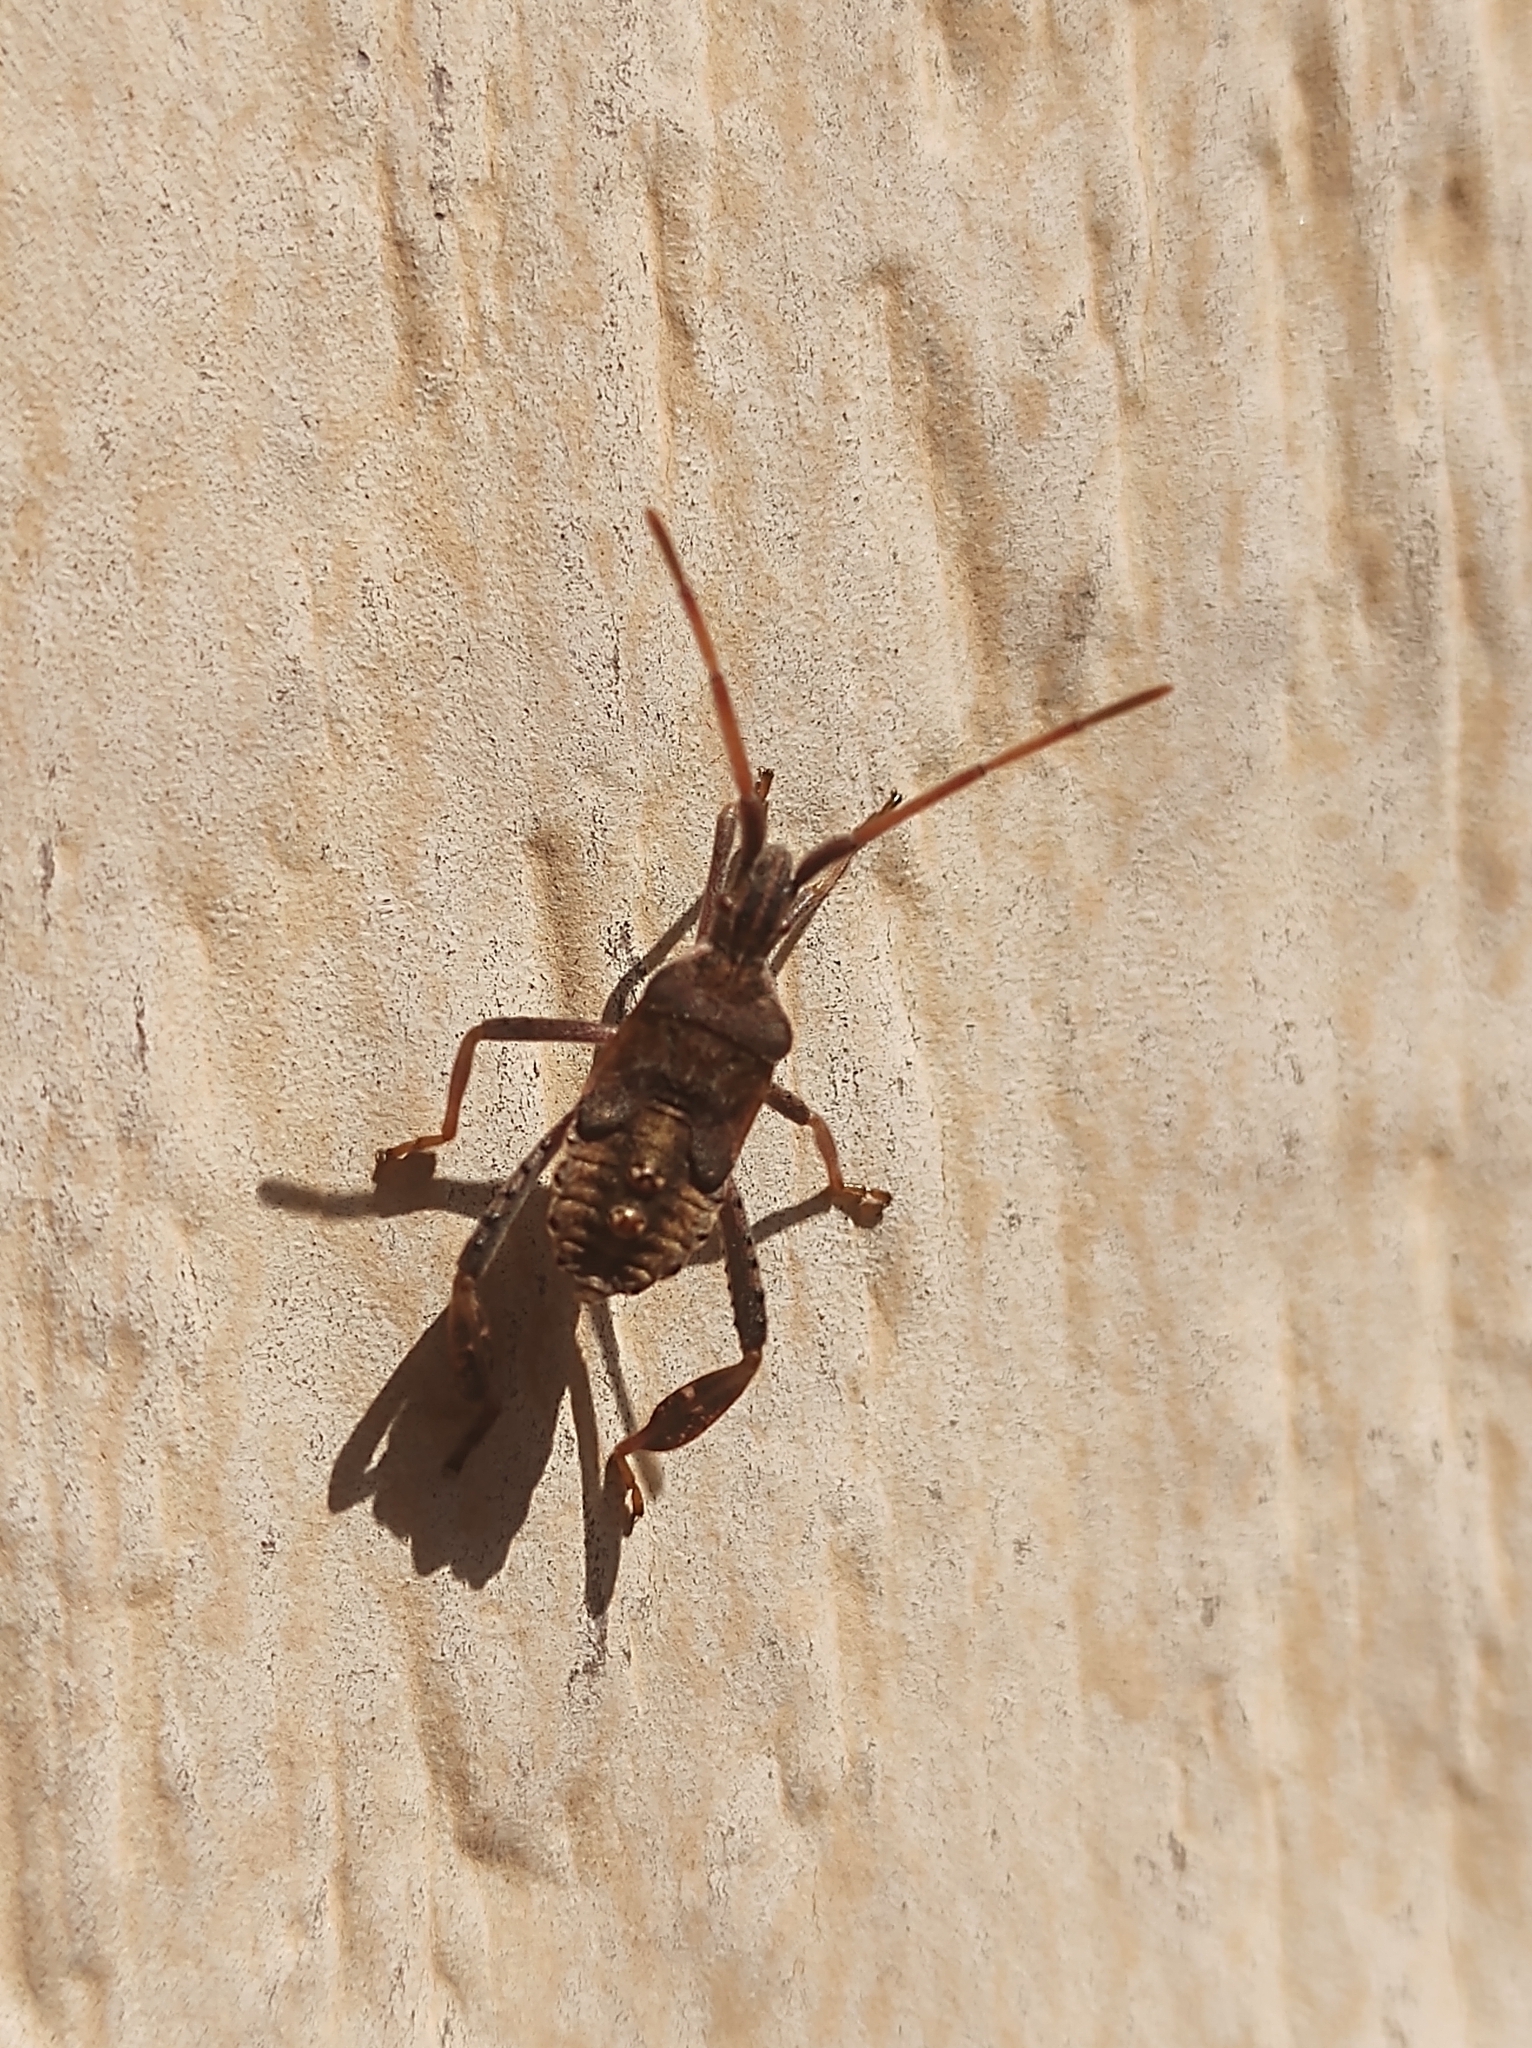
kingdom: Animalia
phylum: Arthropoda
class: Insecta
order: Hemiptera
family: Coreidae
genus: Leptoglossus
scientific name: Leptoglossus corculus
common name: Southern pine seed bug
